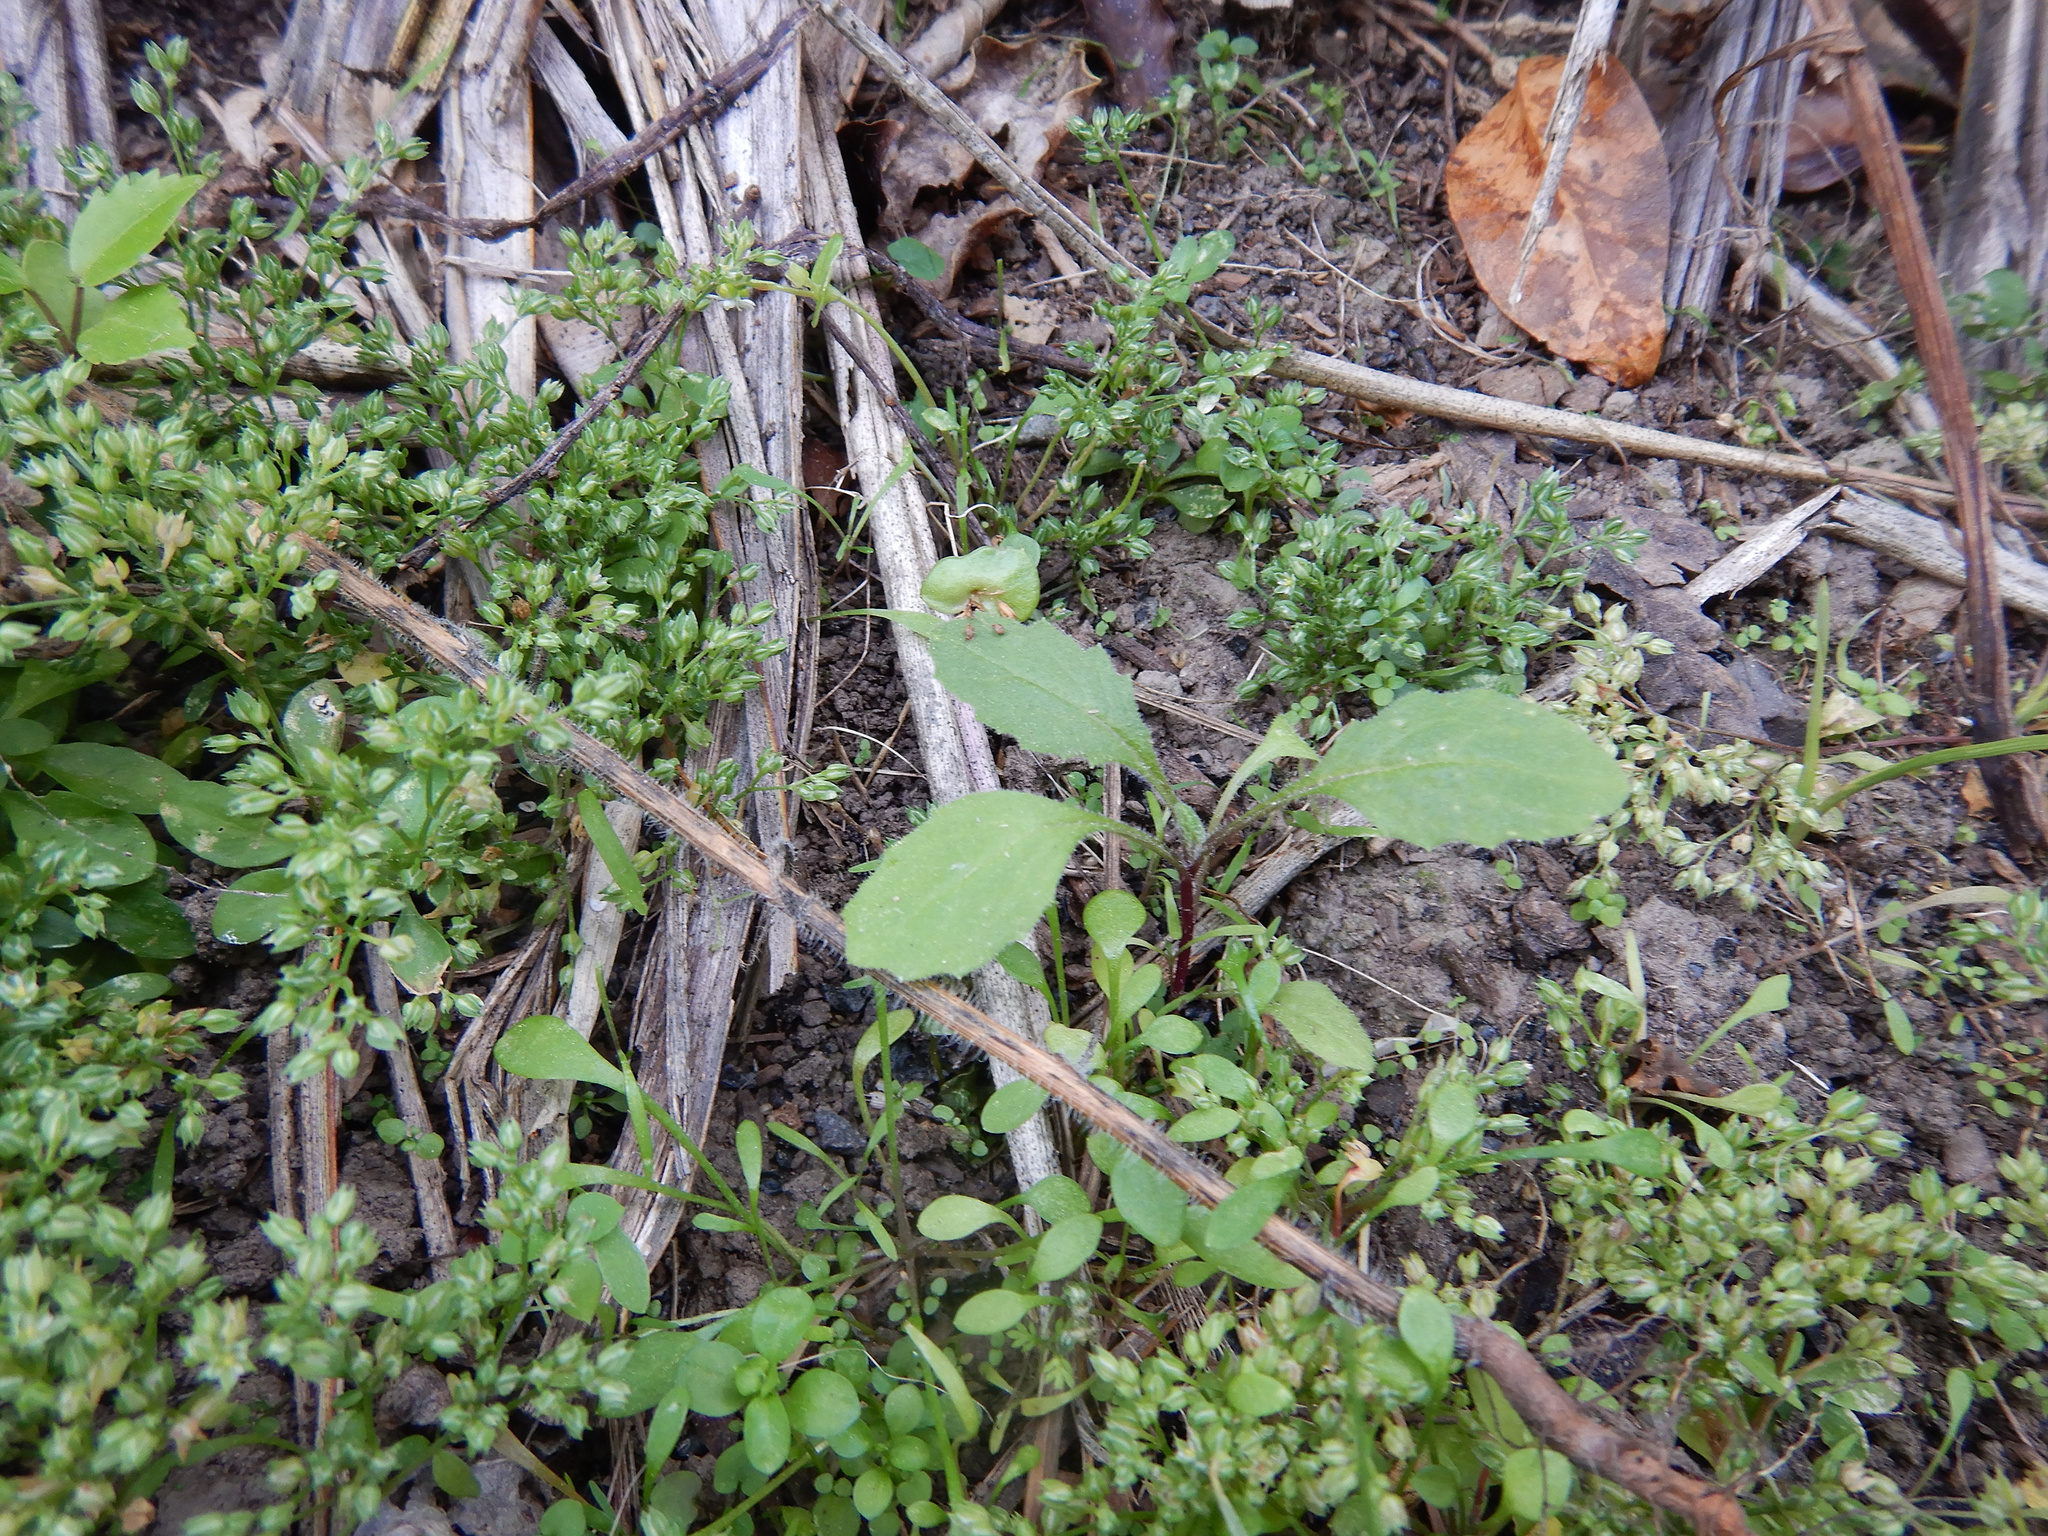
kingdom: Plantae
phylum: Tracheophyta
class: Magnoliopsida
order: Caryophyllales
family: Caryophyllaceae
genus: Polycarpon
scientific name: Polycarpon tetraphyllum
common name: Four-leaved all-seed
